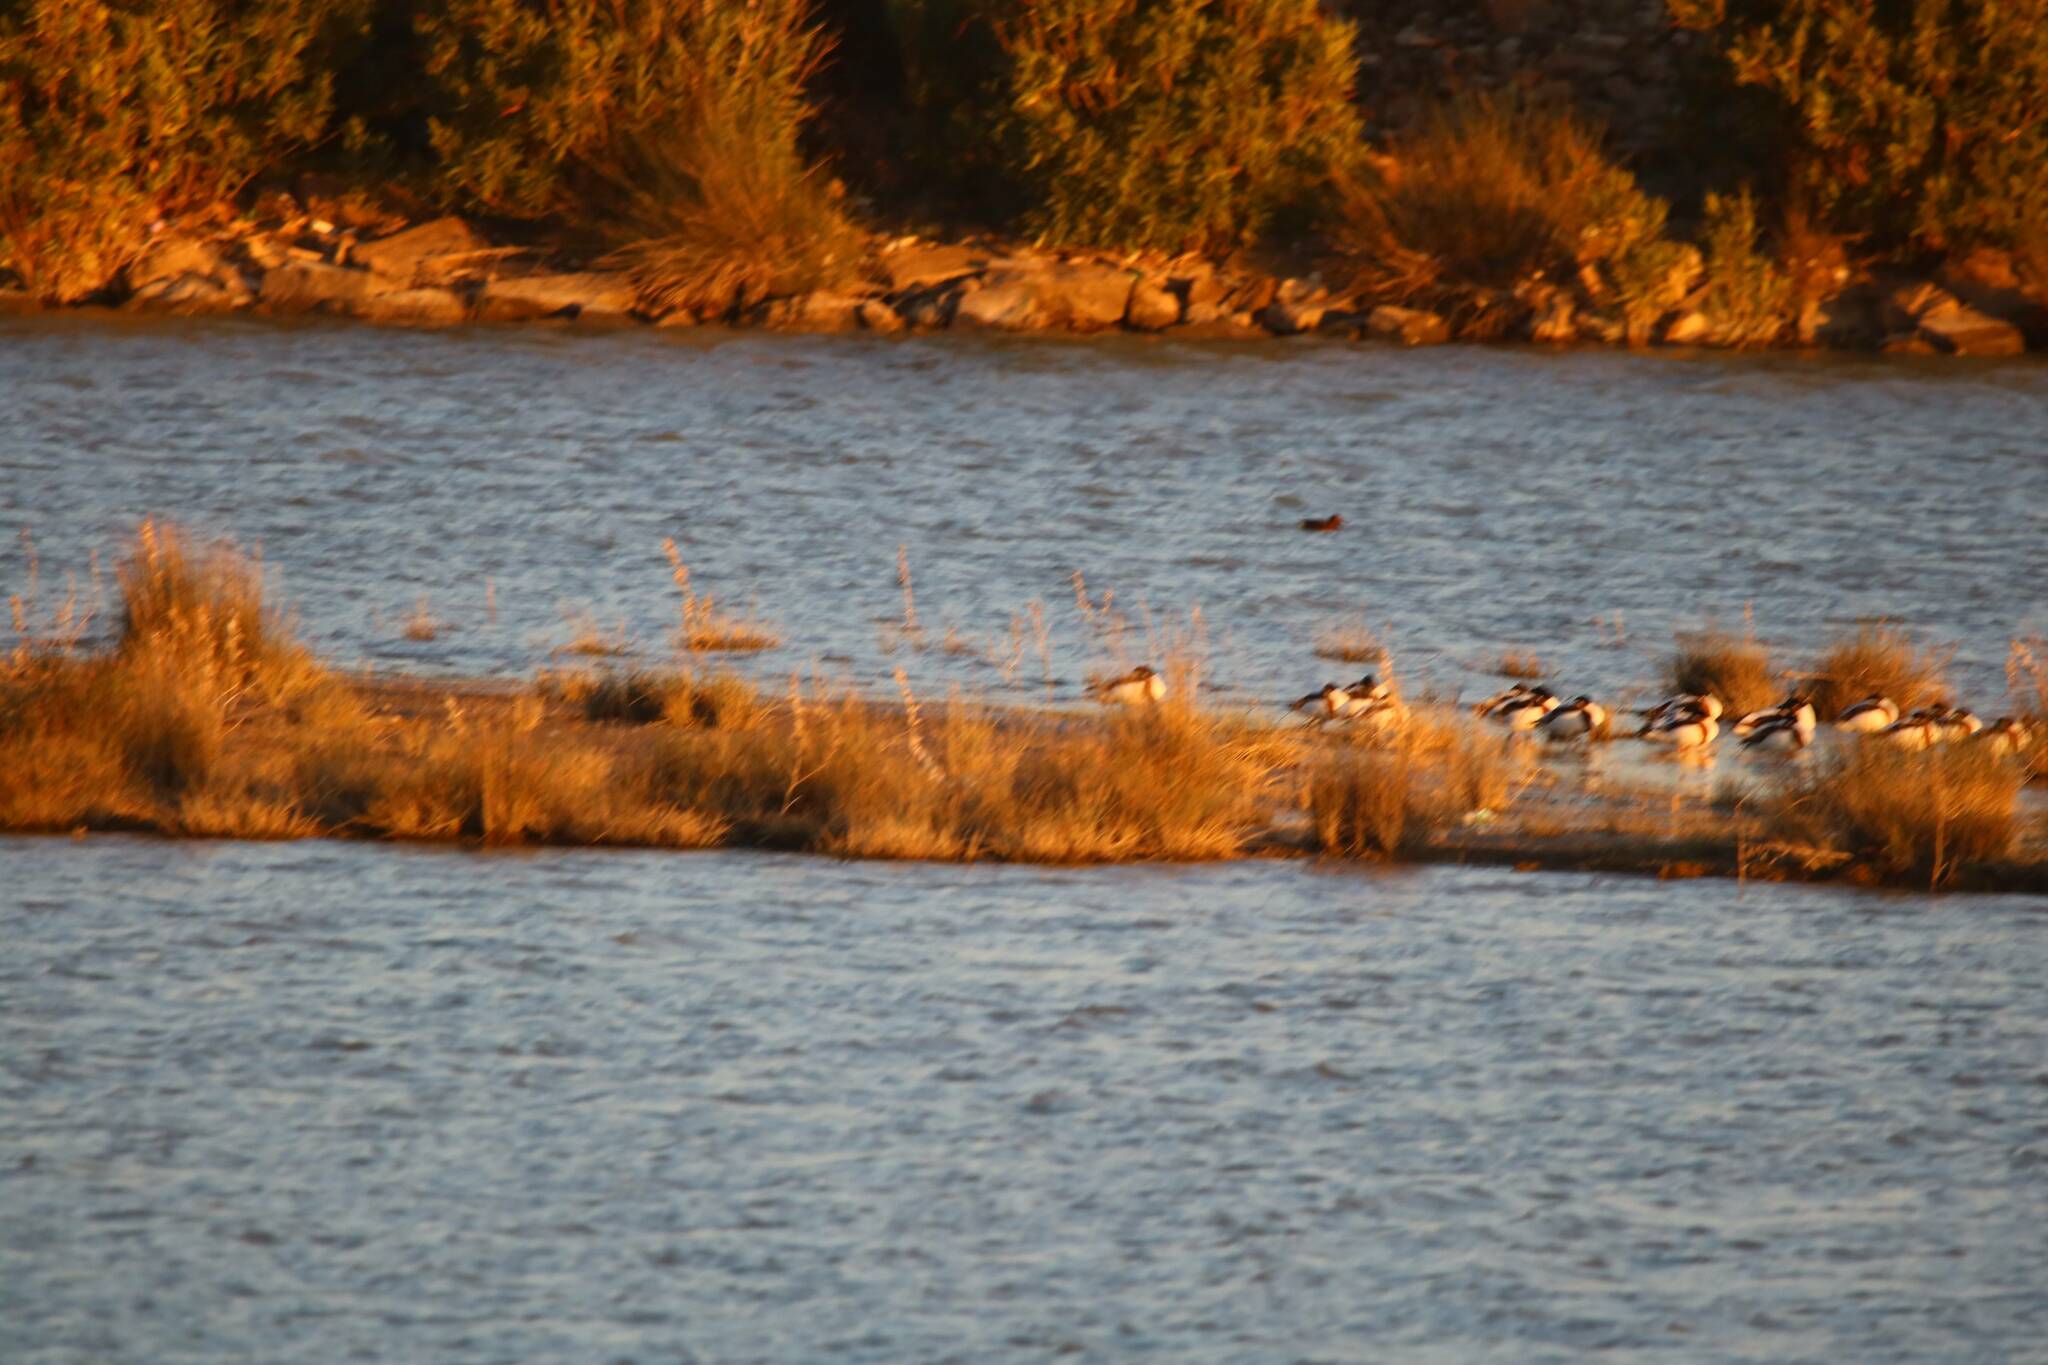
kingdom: Animalia
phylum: Chordata
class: Aves
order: Anseriformes
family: Anatidae
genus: Tadorna
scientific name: Tadorna tadorna
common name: Common shelduck
